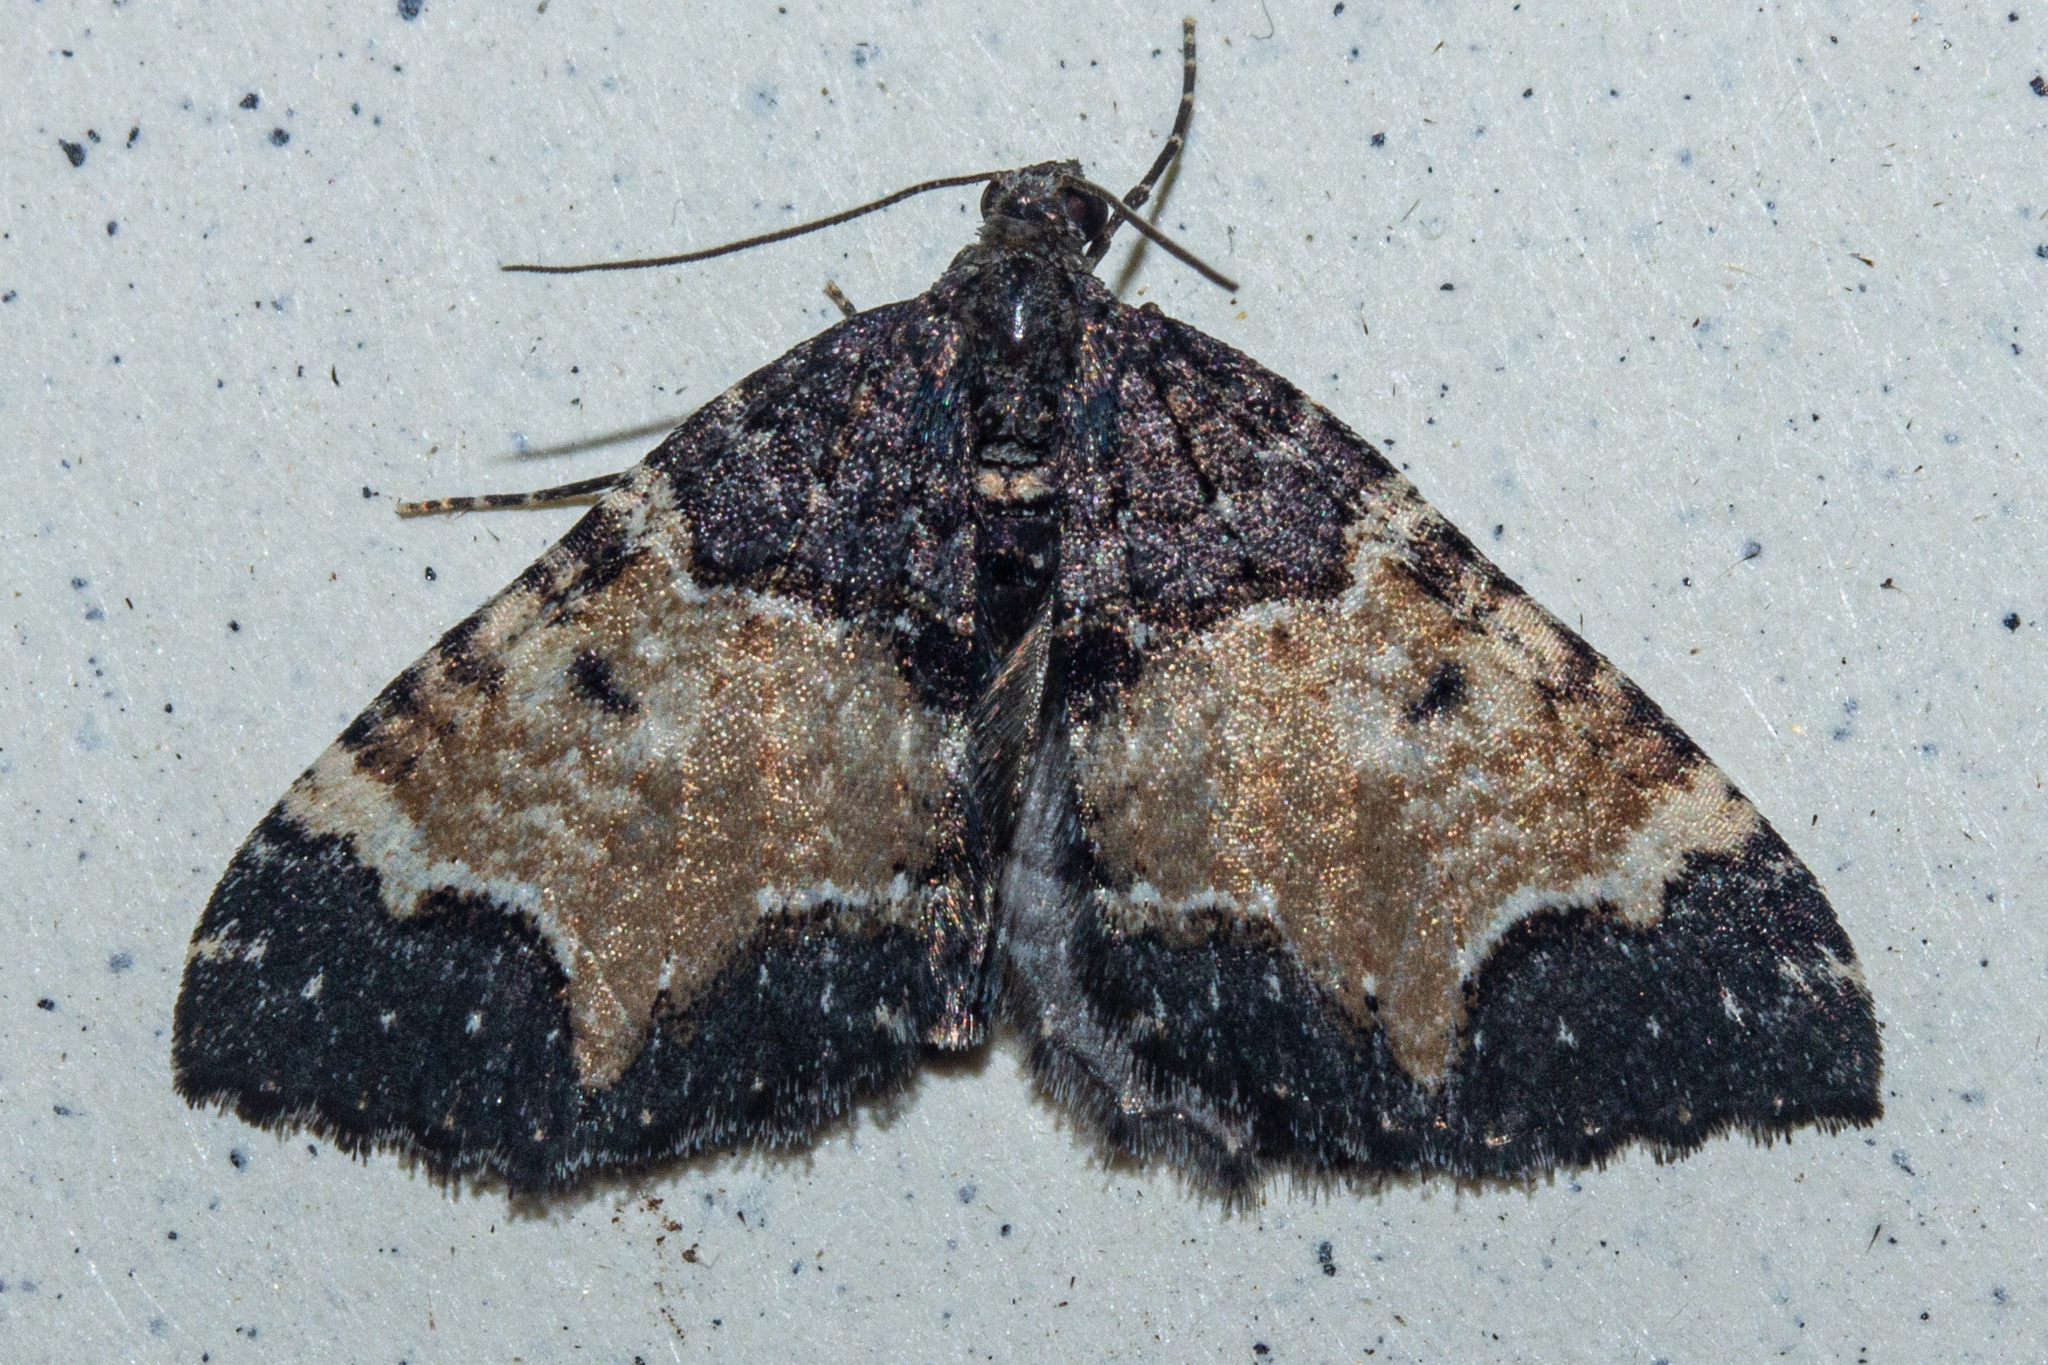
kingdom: Animalia
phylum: Arthropoda
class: Insecta
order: Lepidoptera
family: Geometridae
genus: Hydriomena
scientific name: Hydriomena arida
